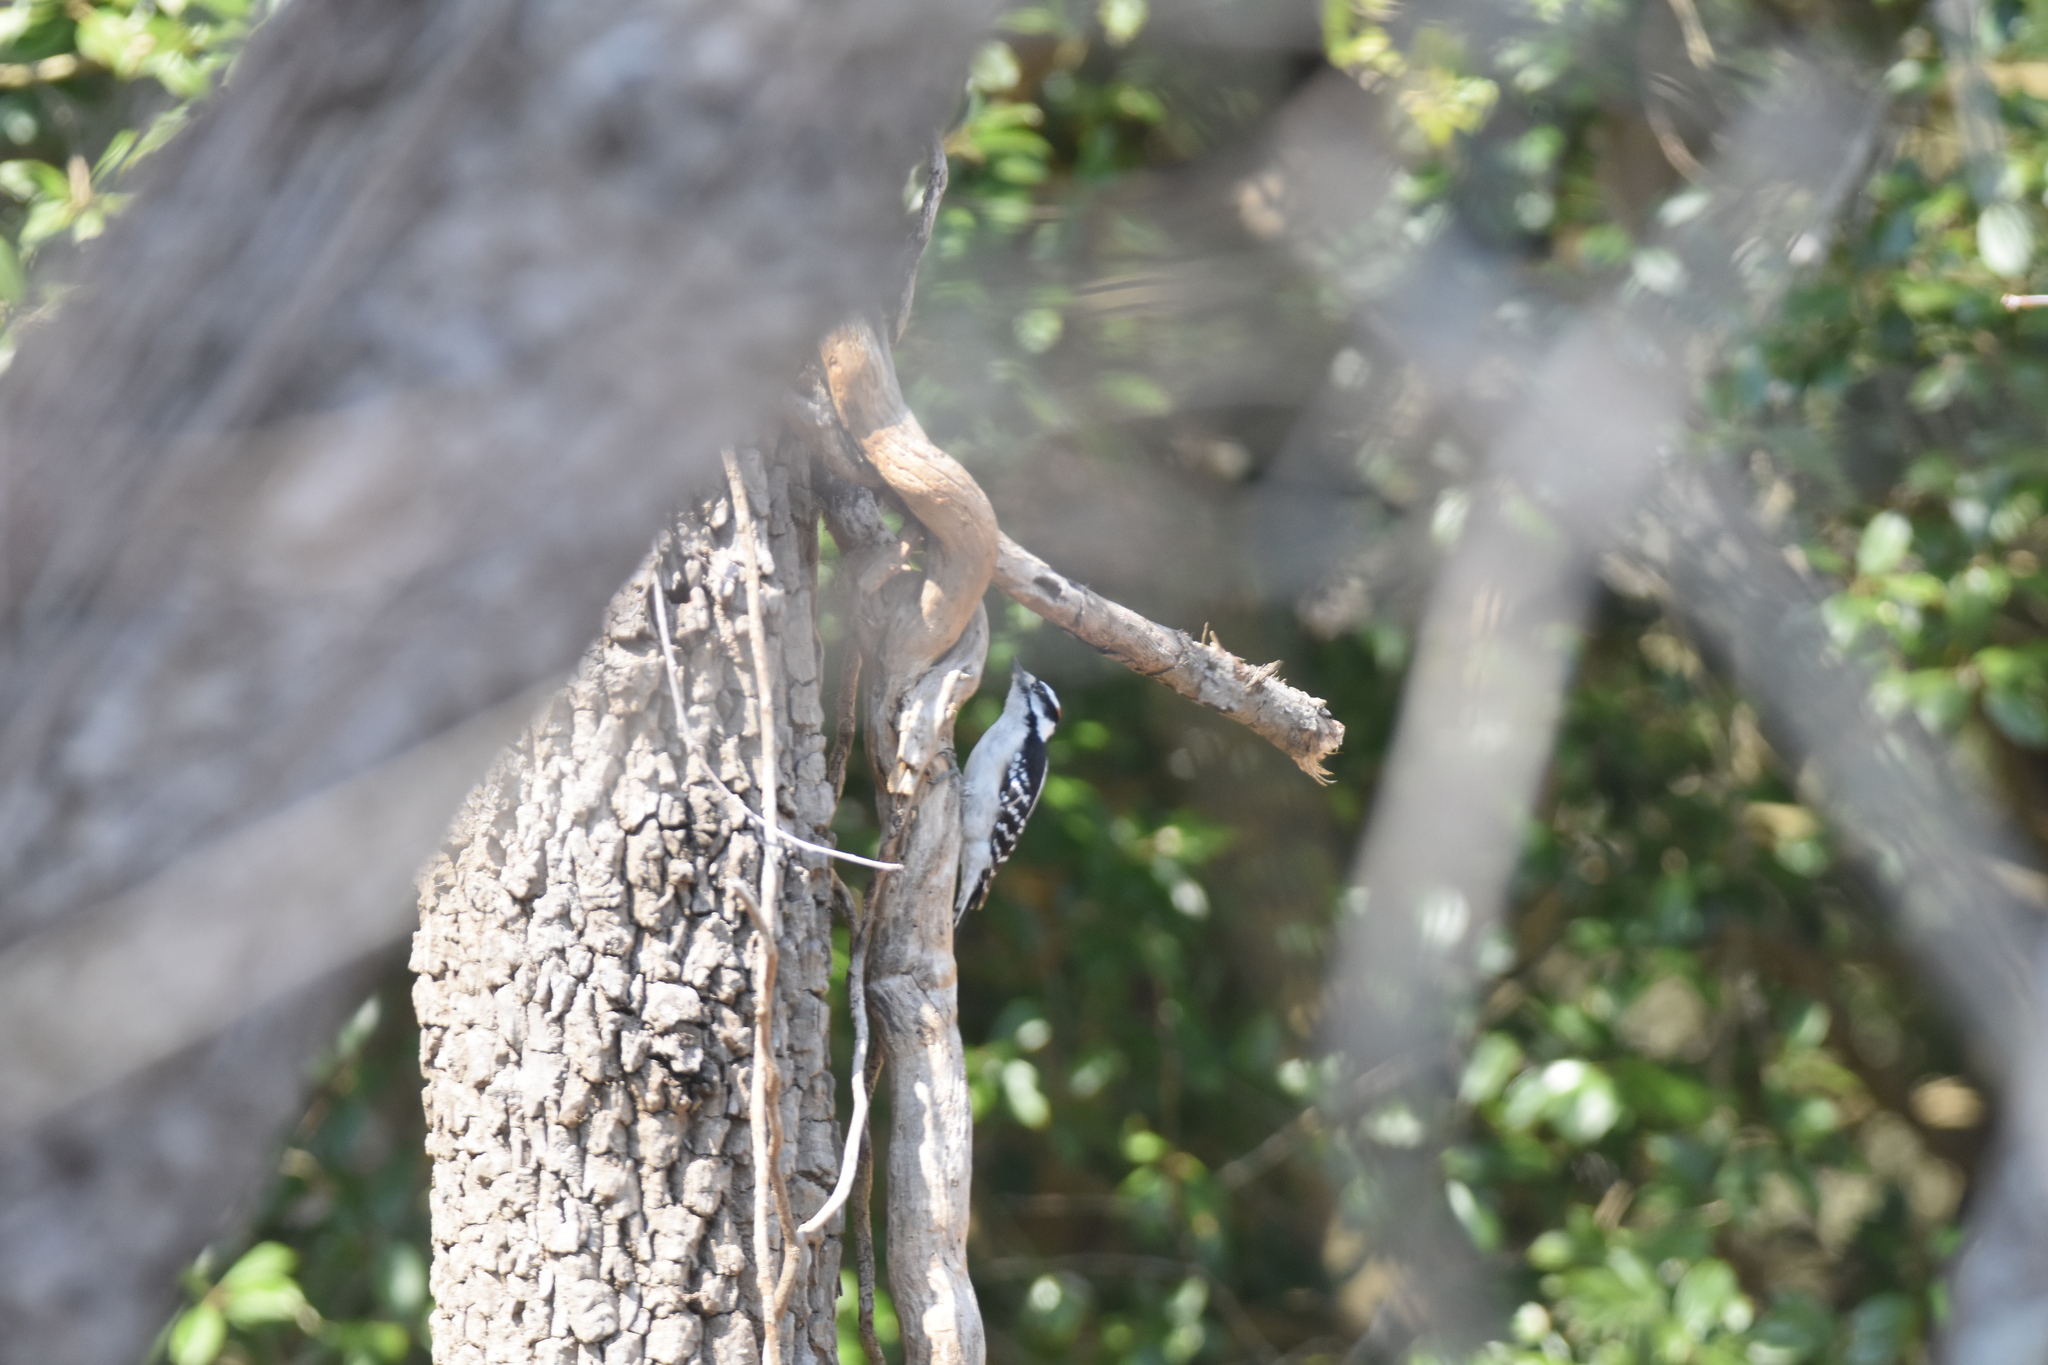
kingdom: Animalia
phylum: Chordata
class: Aves
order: Piciformes
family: Picidae
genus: Dryobates
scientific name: Dryobates pubescens
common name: Downy woodpecker
